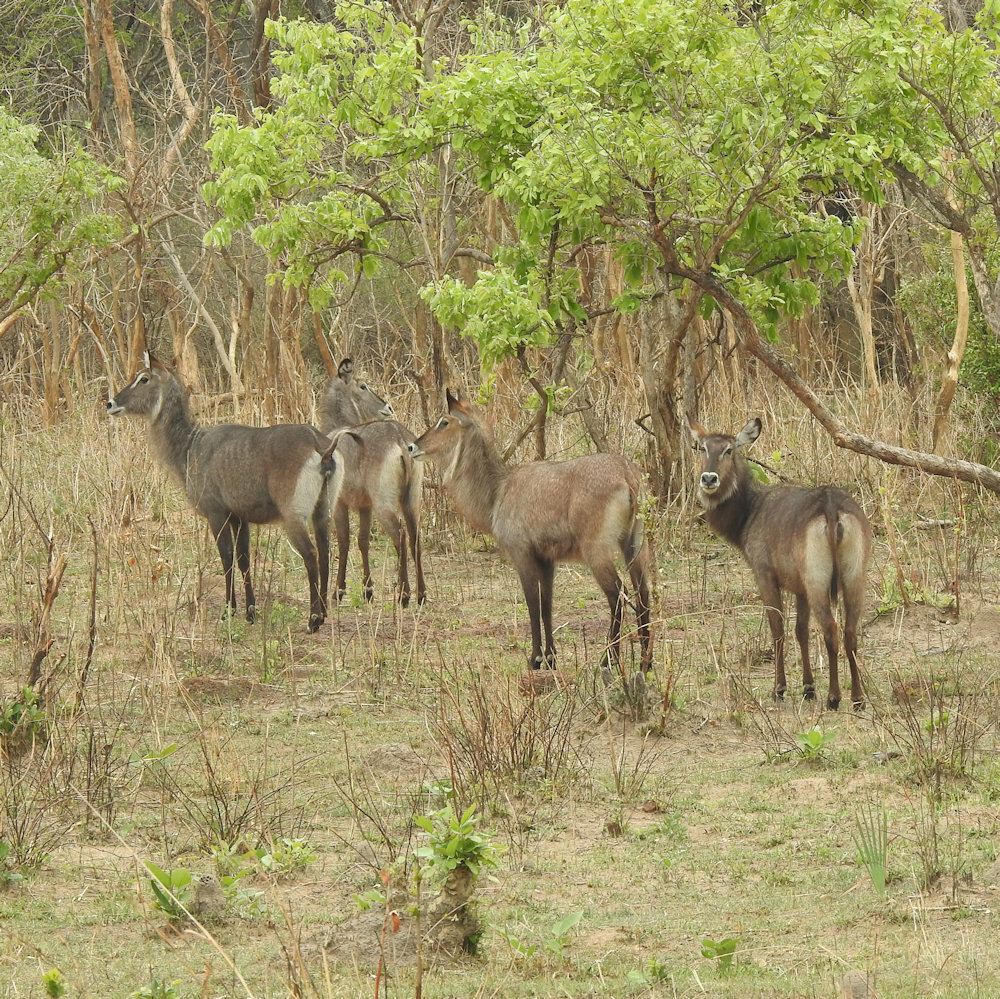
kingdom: Animalia
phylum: Chordata
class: Mammalia
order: Artiodactyla
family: Bovidae
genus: Kobus
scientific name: Kobus ellipsiprymnus
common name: Waterbuck
